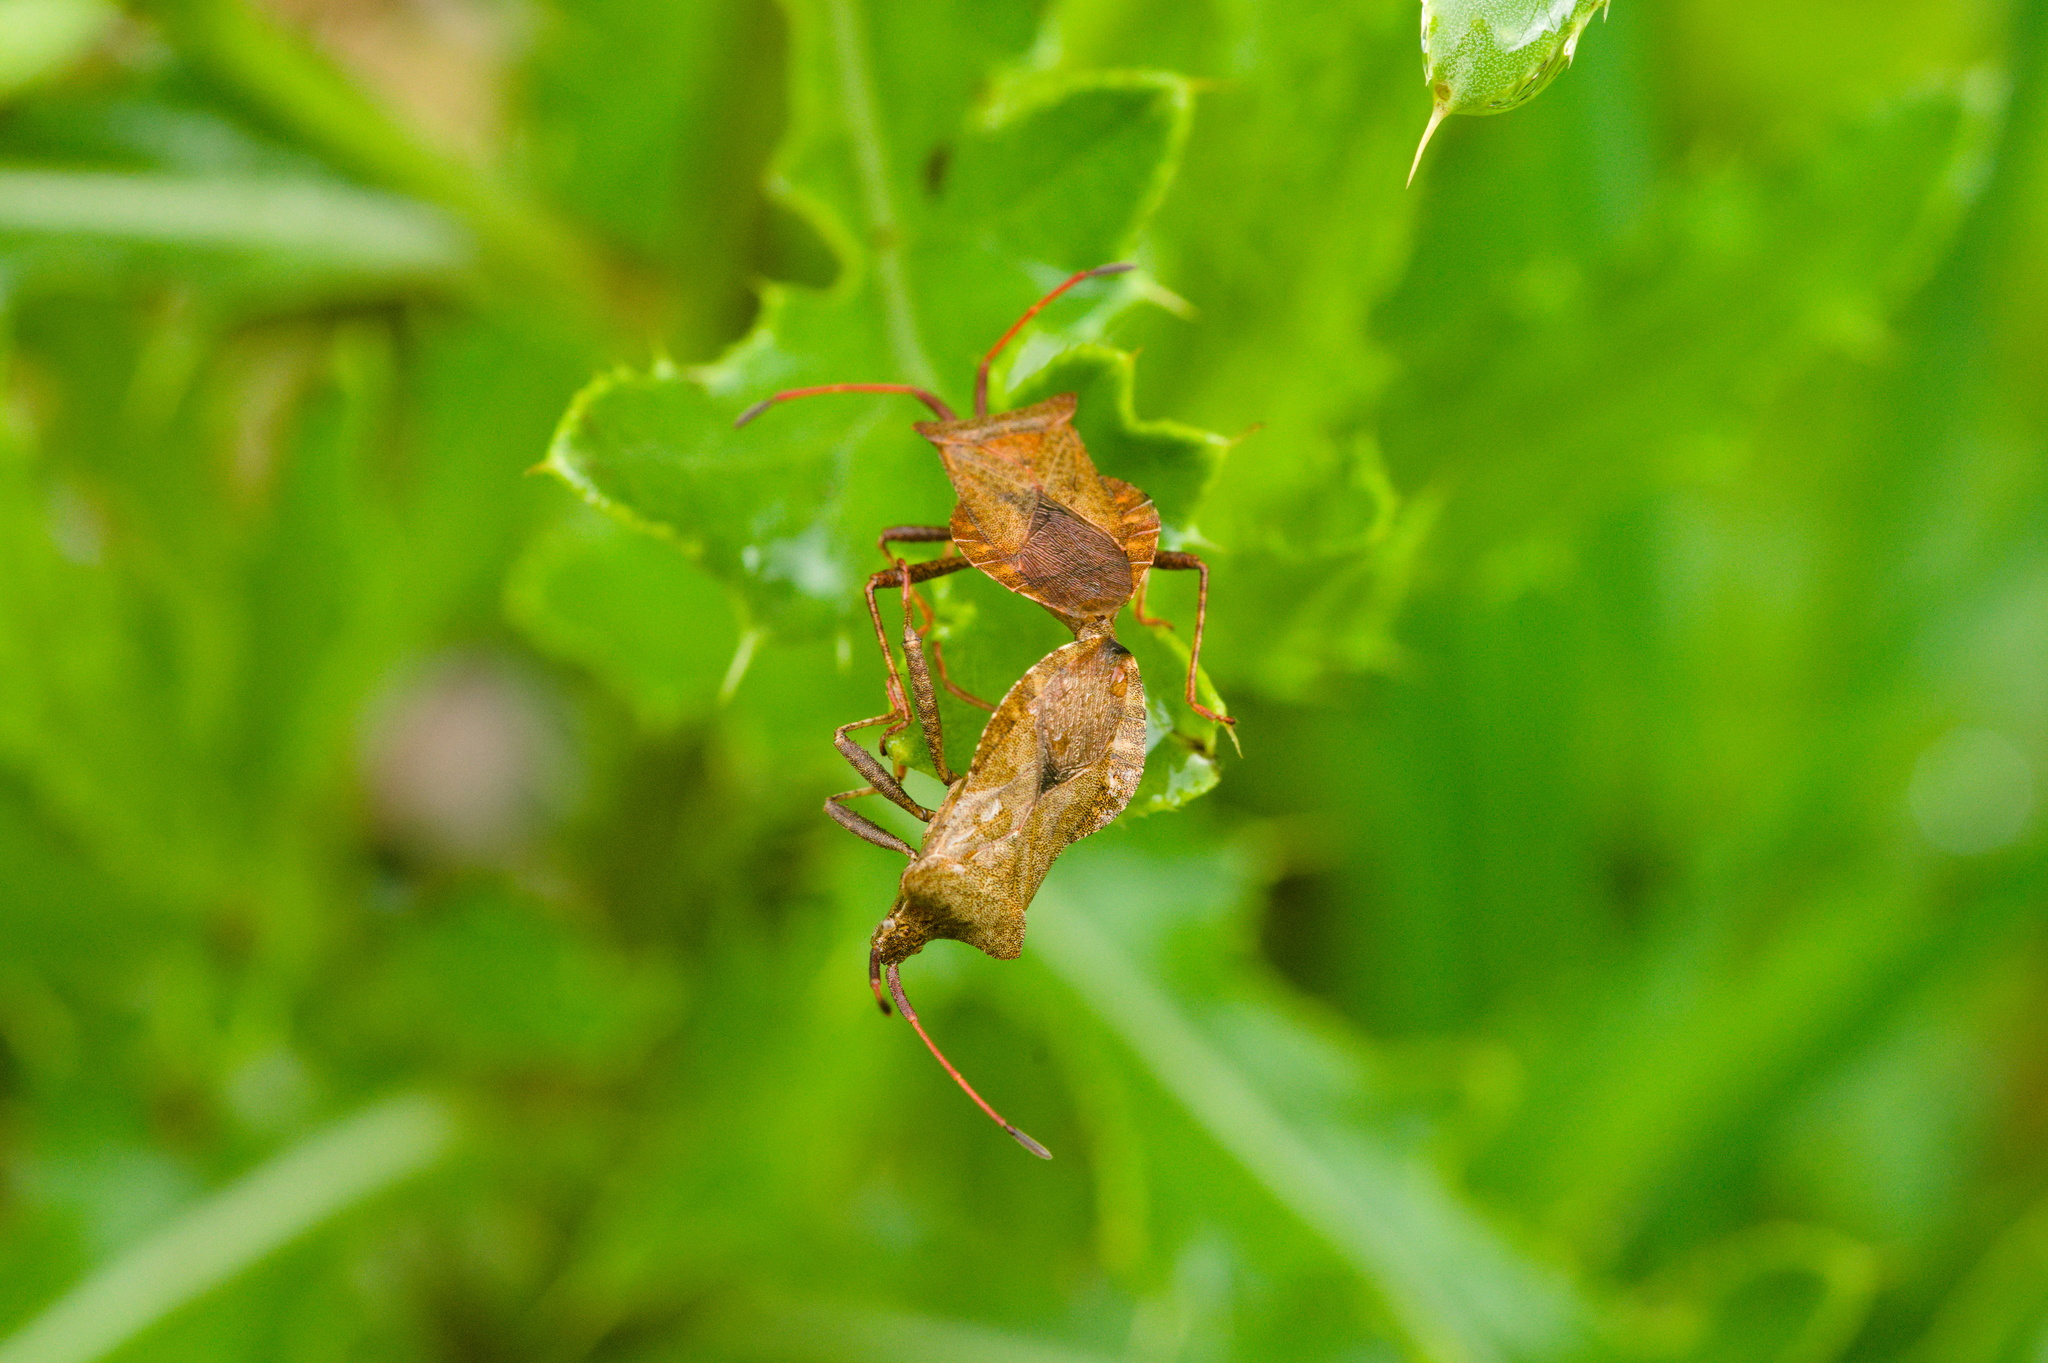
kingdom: Animalia
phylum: Arthropoda
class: Insecta
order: Hemiptera
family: Coreidae
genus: Coreus
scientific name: Coreus marginatus
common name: Dock bug
